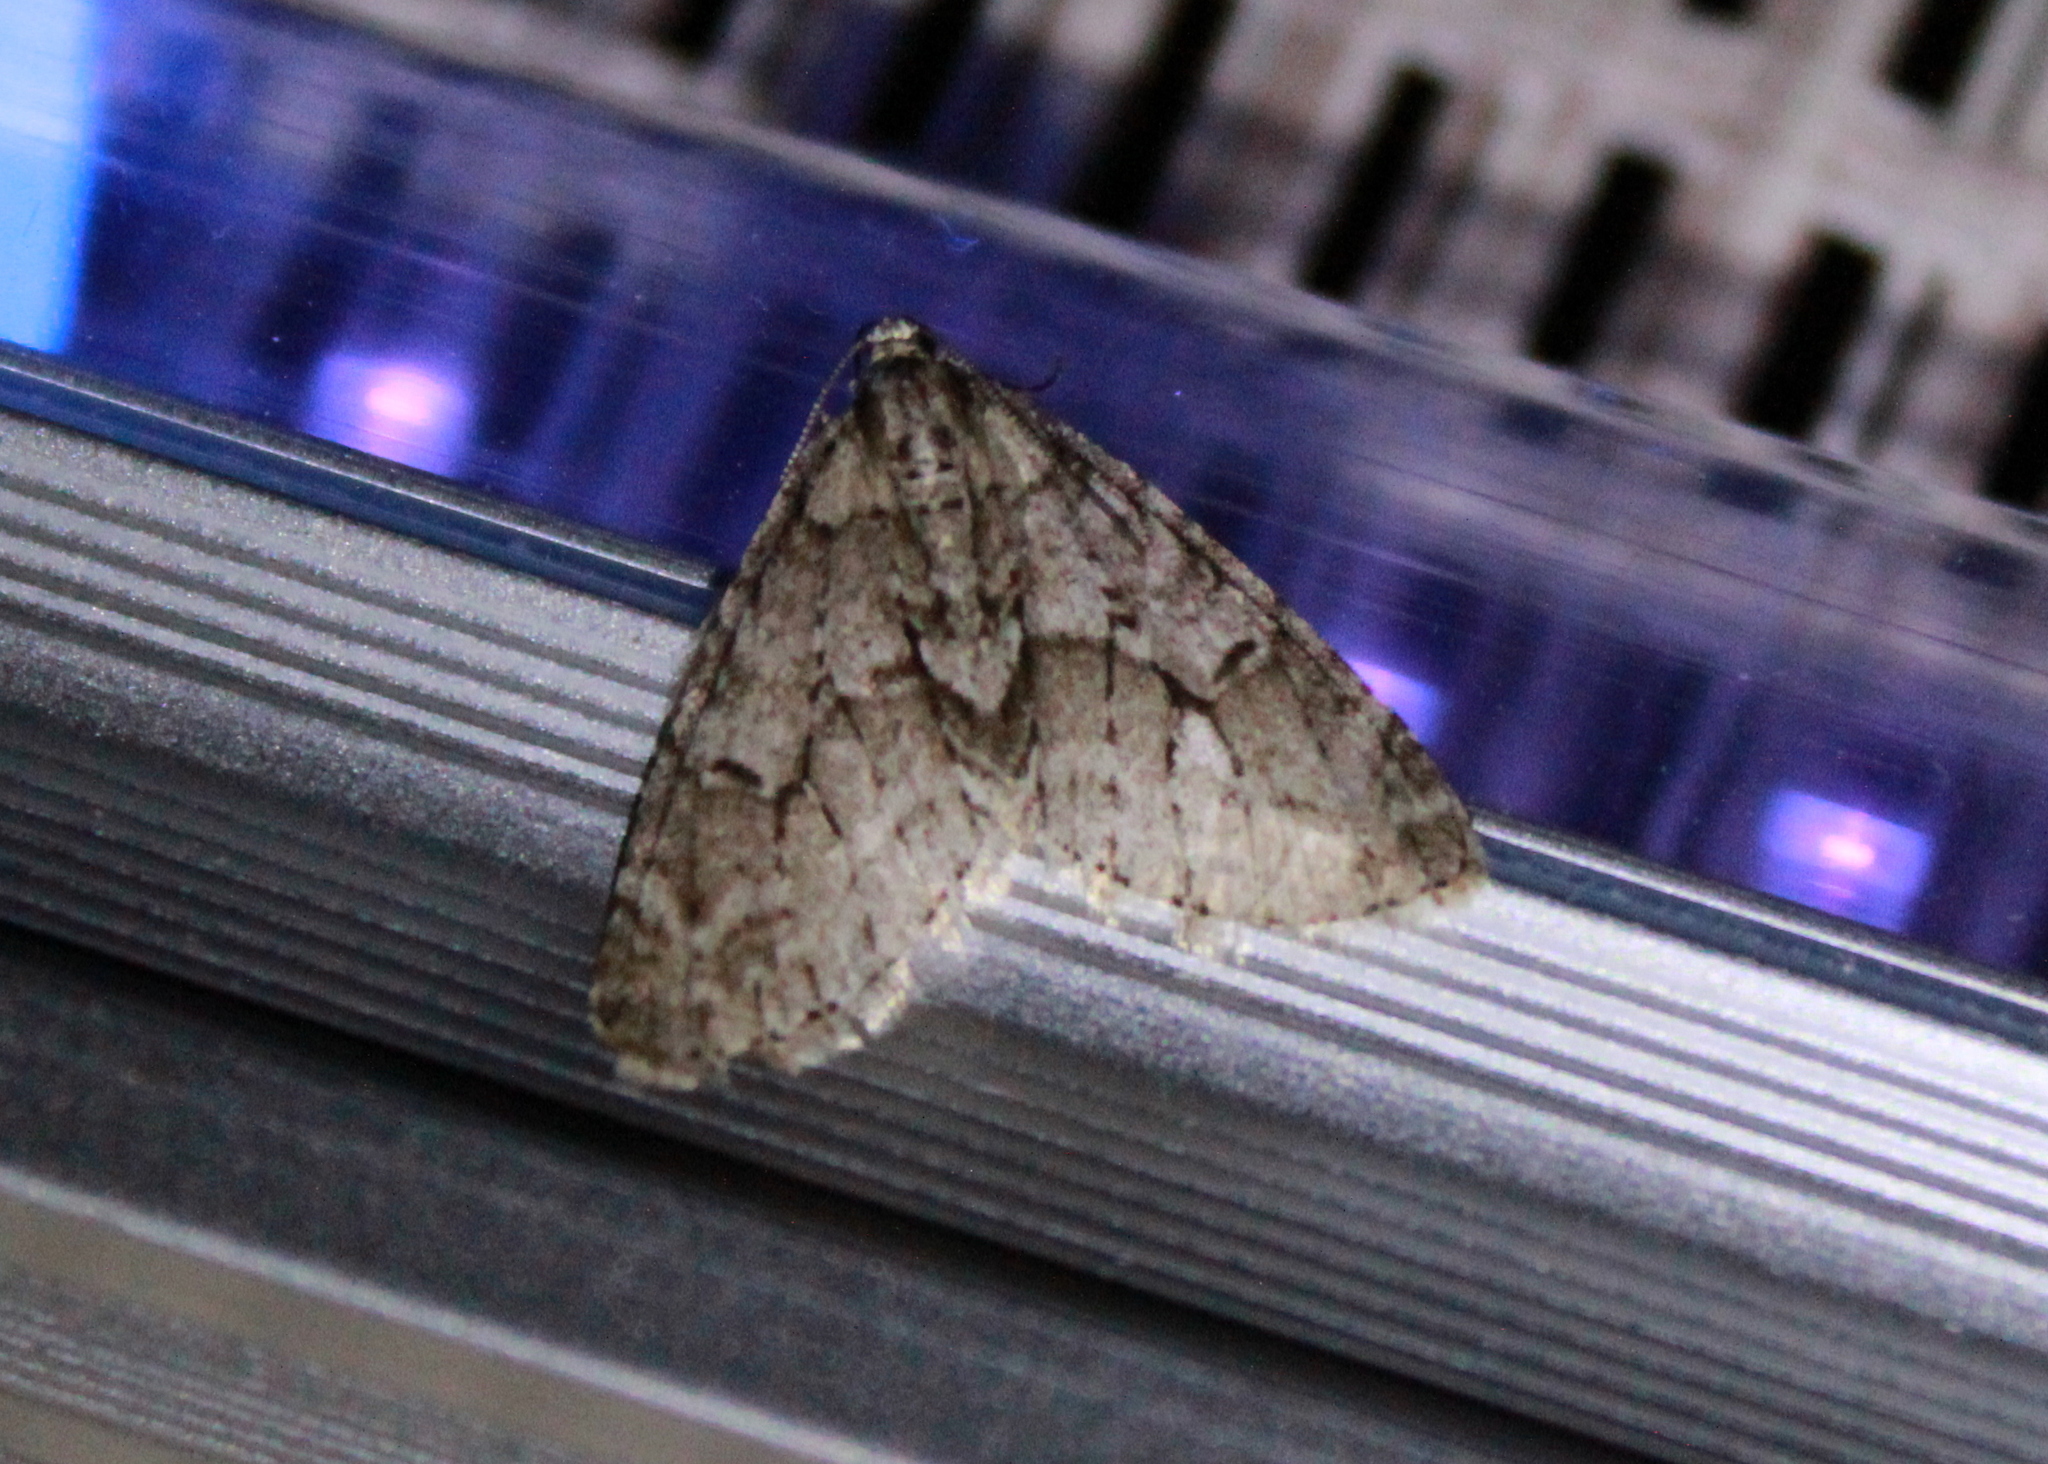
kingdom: Animalia
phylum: Arthropoda
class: Insecta
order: Lepidoptera
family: Geometridae
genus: Cladara
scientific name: Cladara limitaria
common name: Mottled gray carpet
